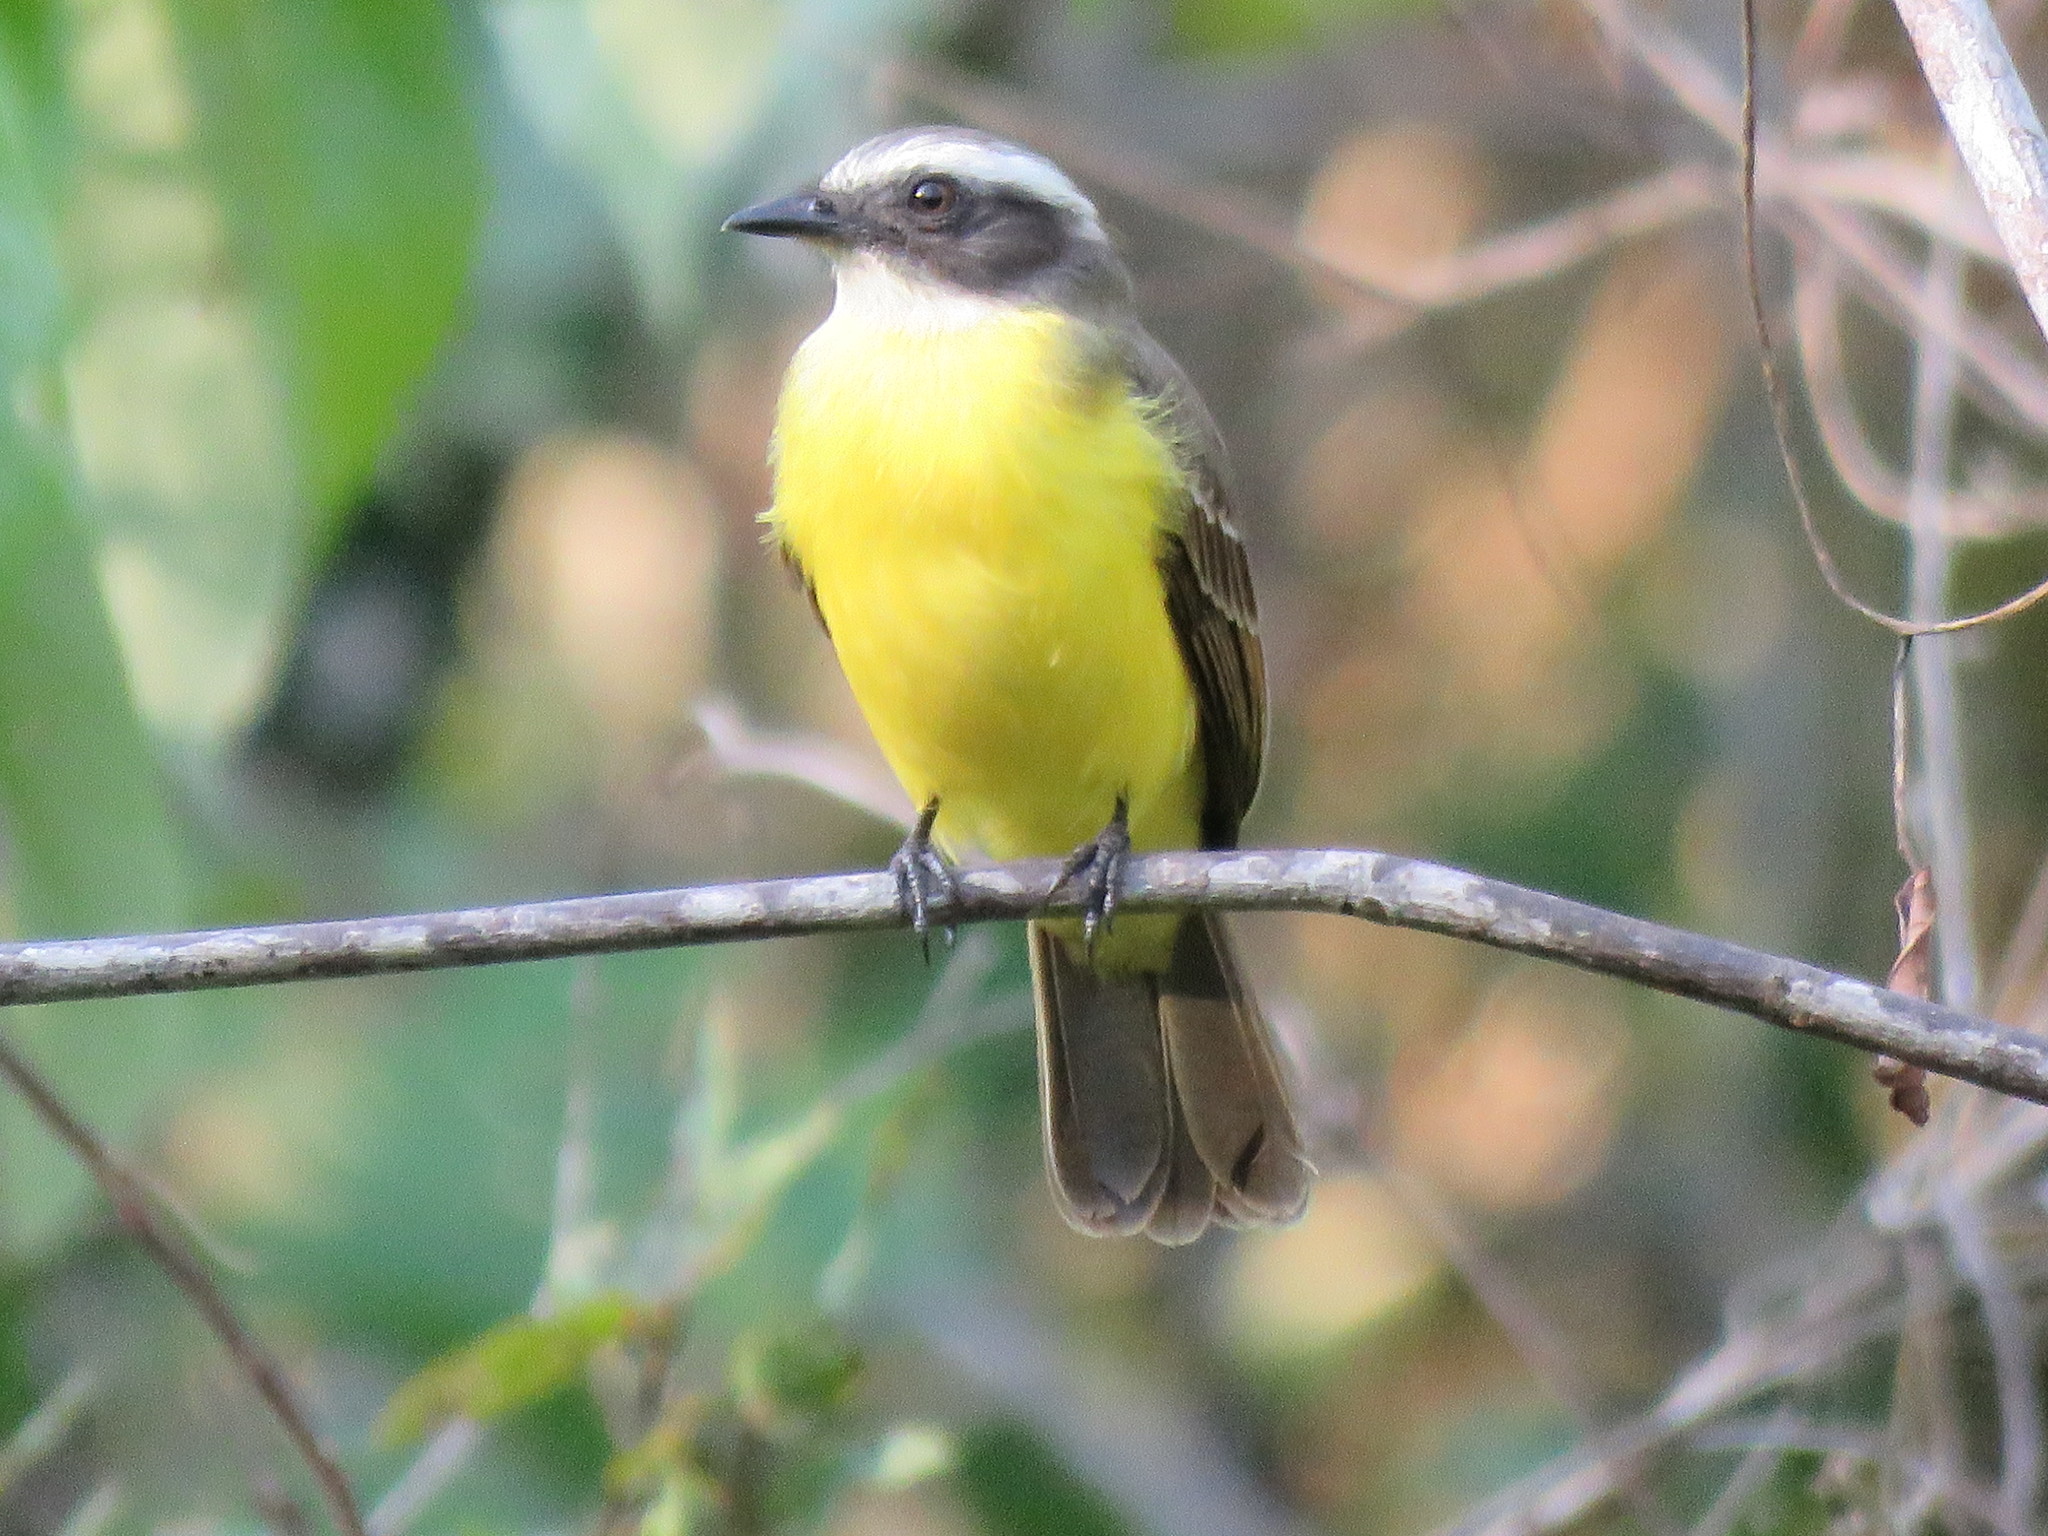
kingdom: Animalia
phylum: Chordata
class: Aves
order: Passeriformes
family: Tyrannidae
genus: Myiozetetes
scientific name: Myiozetetes cayanensis
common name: Rusty-margined flycatcher
